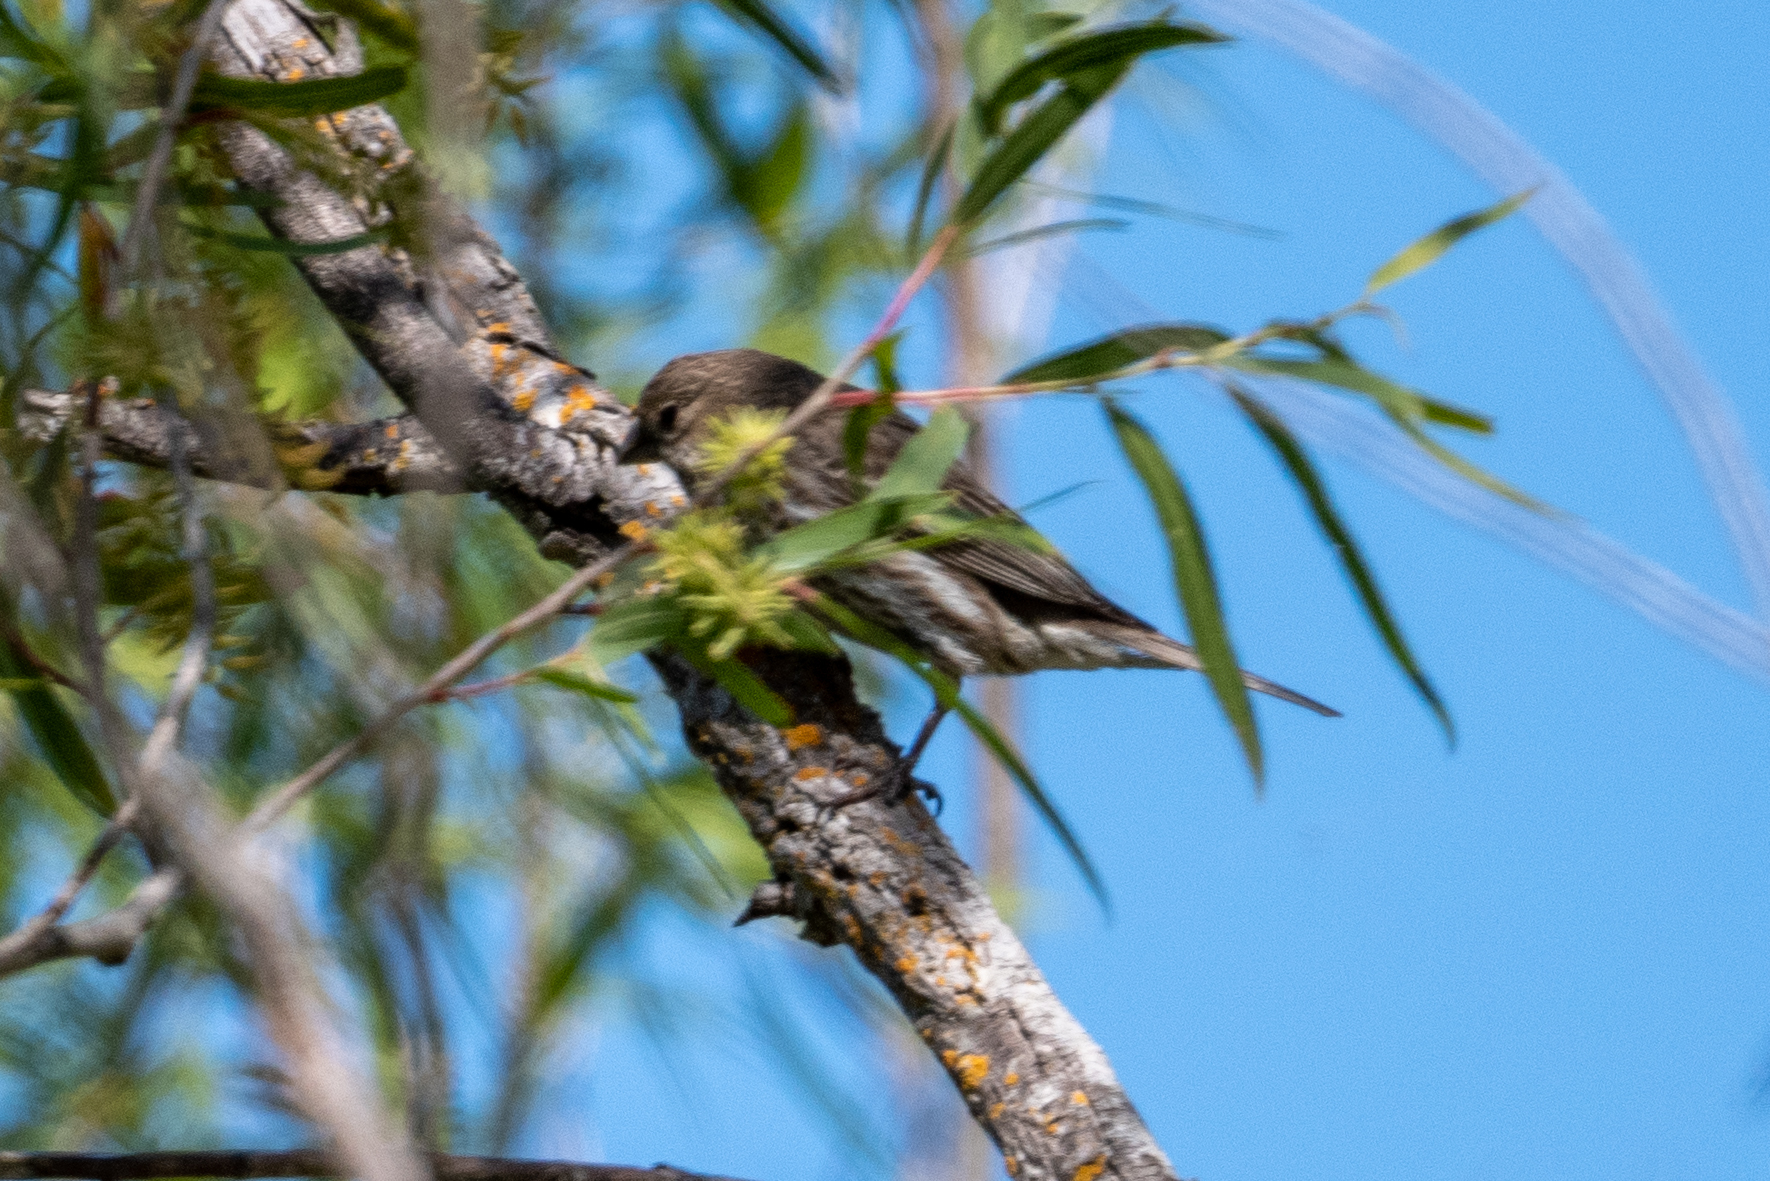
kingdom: Animalia
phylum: Chordata
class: Aves
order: Passeriformes
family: Fringillidae
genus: Haemorhous
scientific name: Haemorhous mexicanus
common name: House finch
